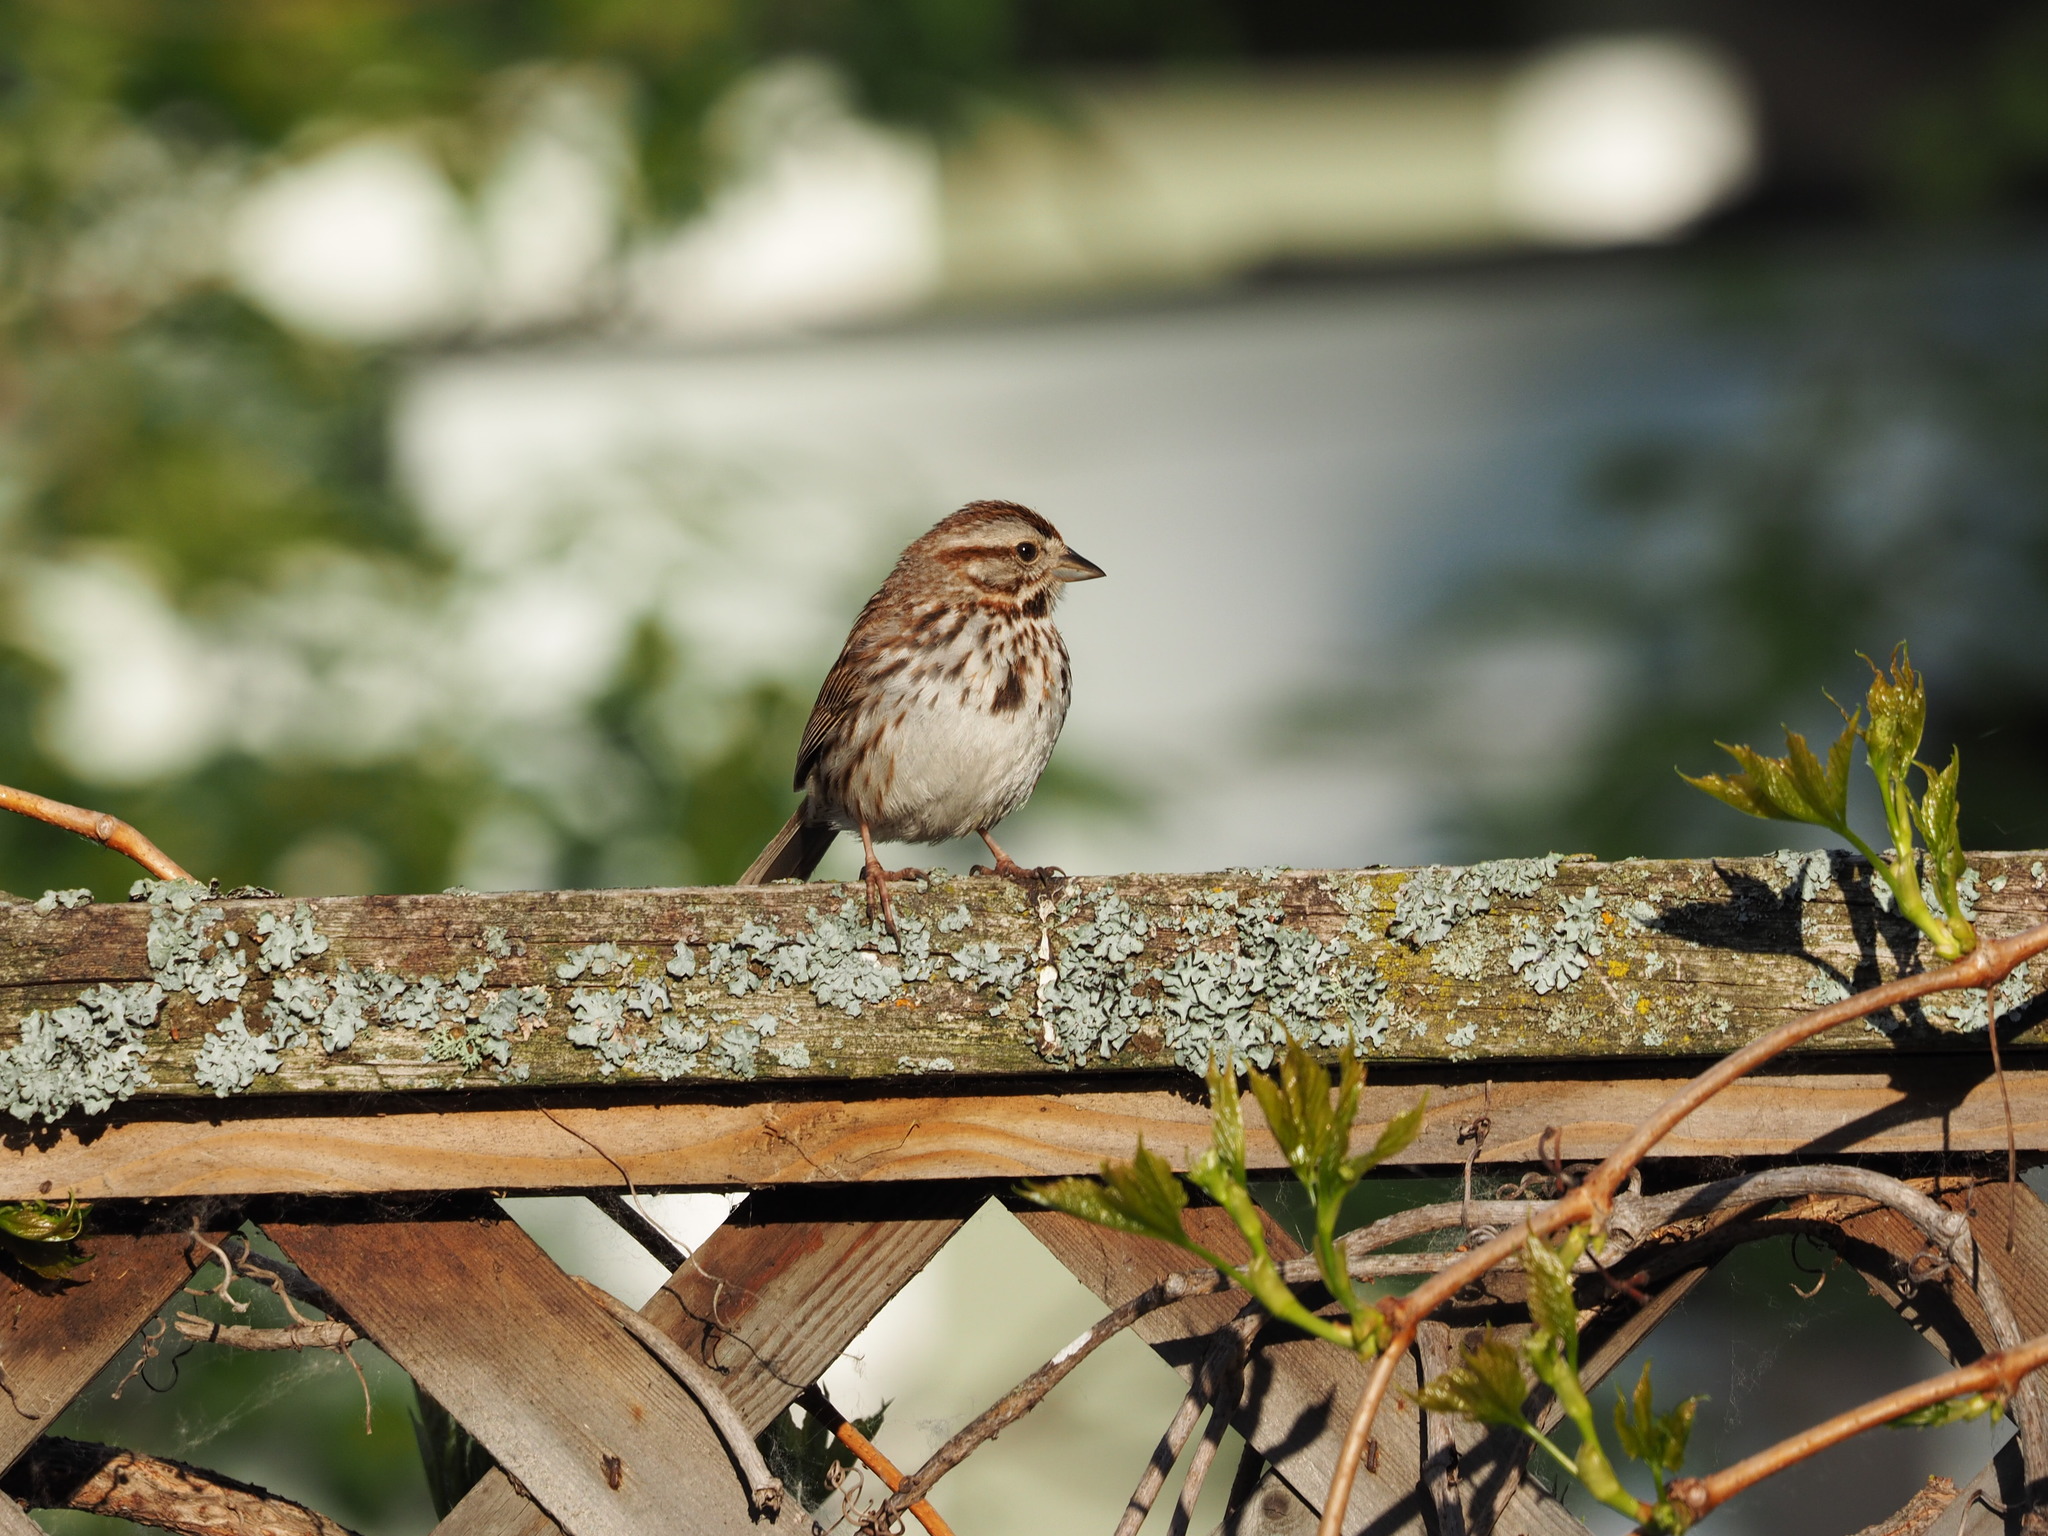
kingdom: Animalia
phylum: Chordata
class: Aves
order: Passeriformes
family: Passerellidae
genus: Melospiza
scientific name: Melospiza melodia
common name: Song sparrow
